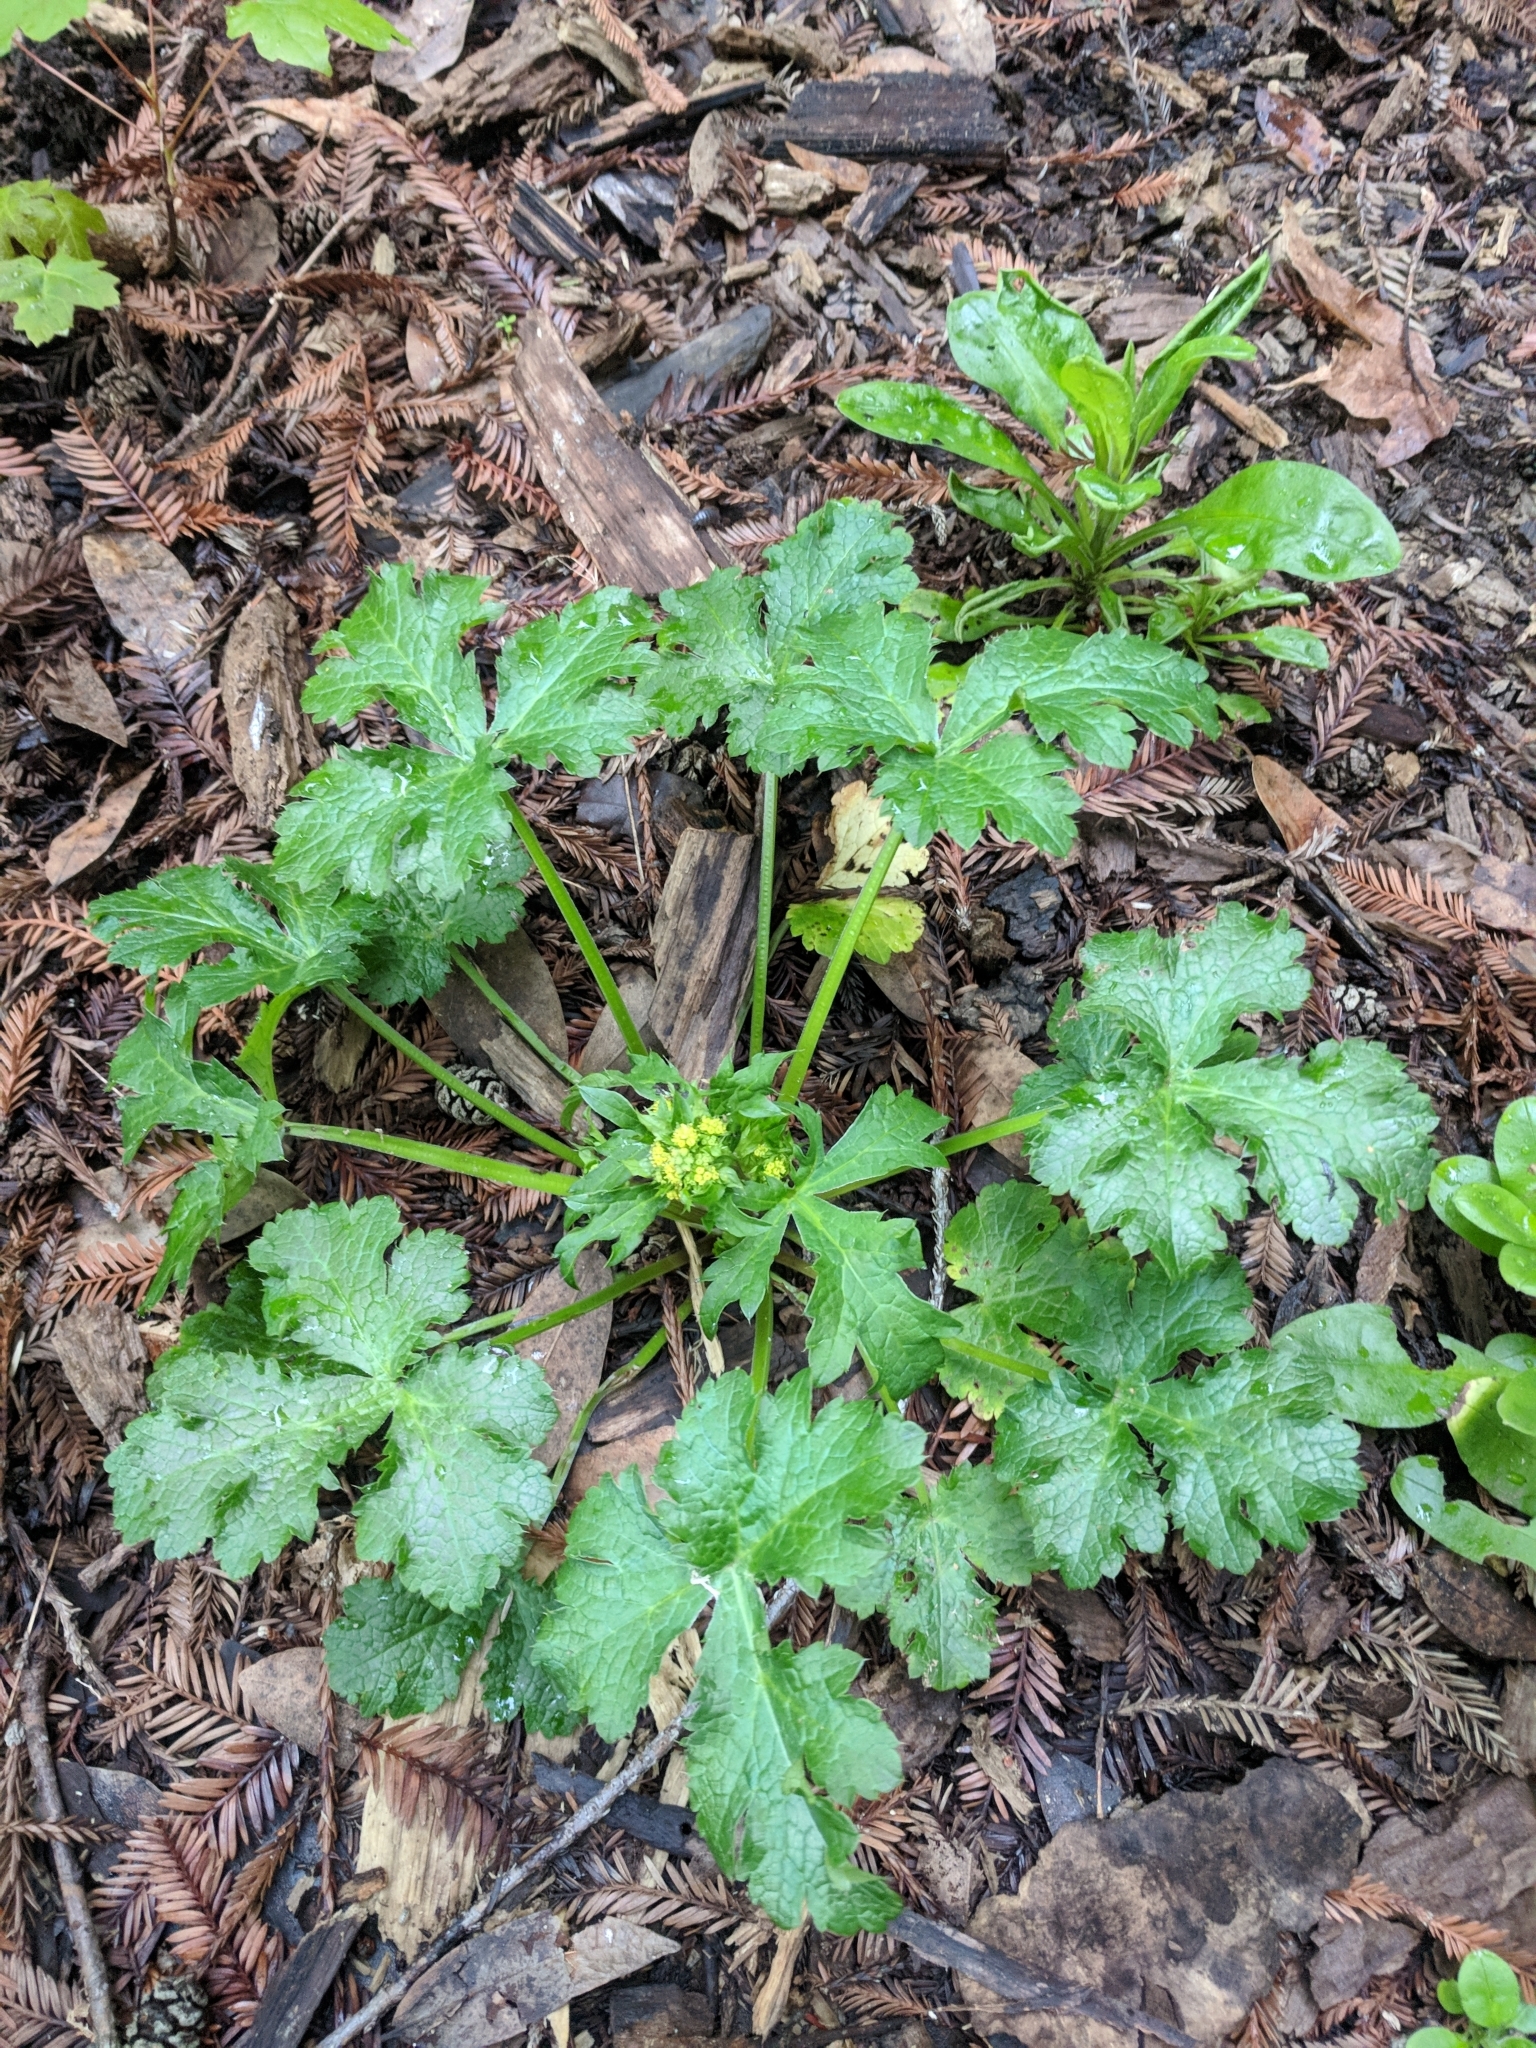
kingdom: Plantae
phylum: Tracheophyta
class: Magnoliopsida
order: Apiales
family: Apiaceae
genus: Sanicula
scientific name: Sanicula crassicaulis
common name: Western snakeroot
